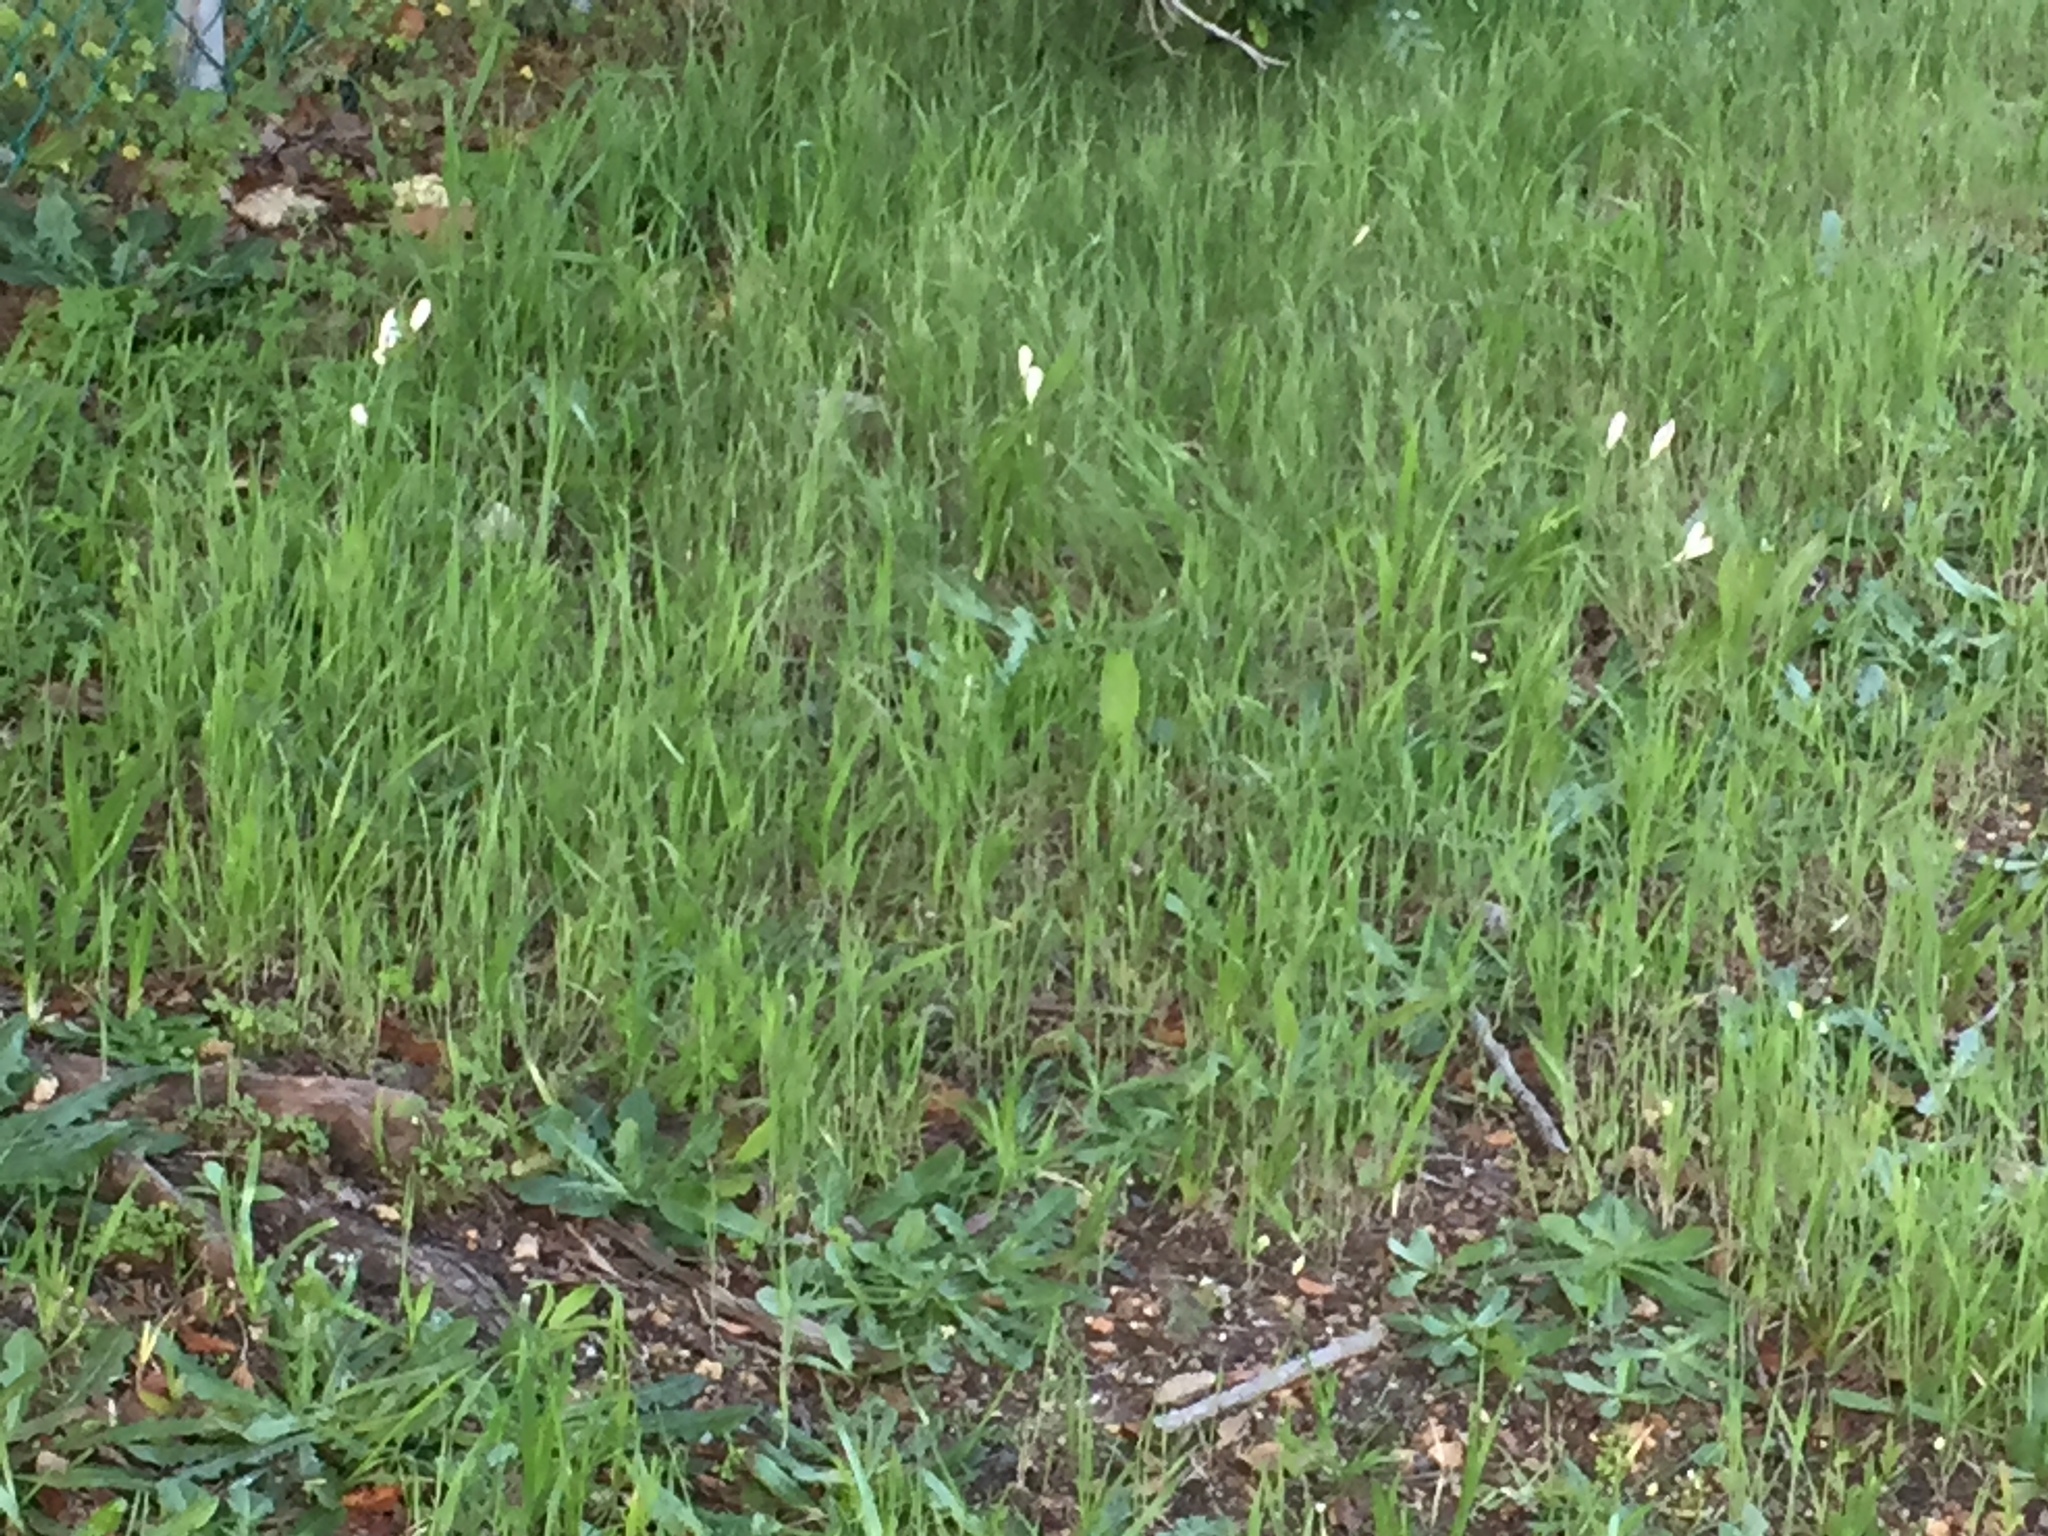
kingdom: Plantae
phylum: Tracheophyta
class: Liliopsida
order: Asparagales
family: Iridaceae
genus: Sparaxis
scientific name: Sparaxis bulbifera
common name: Harlequin-flower
